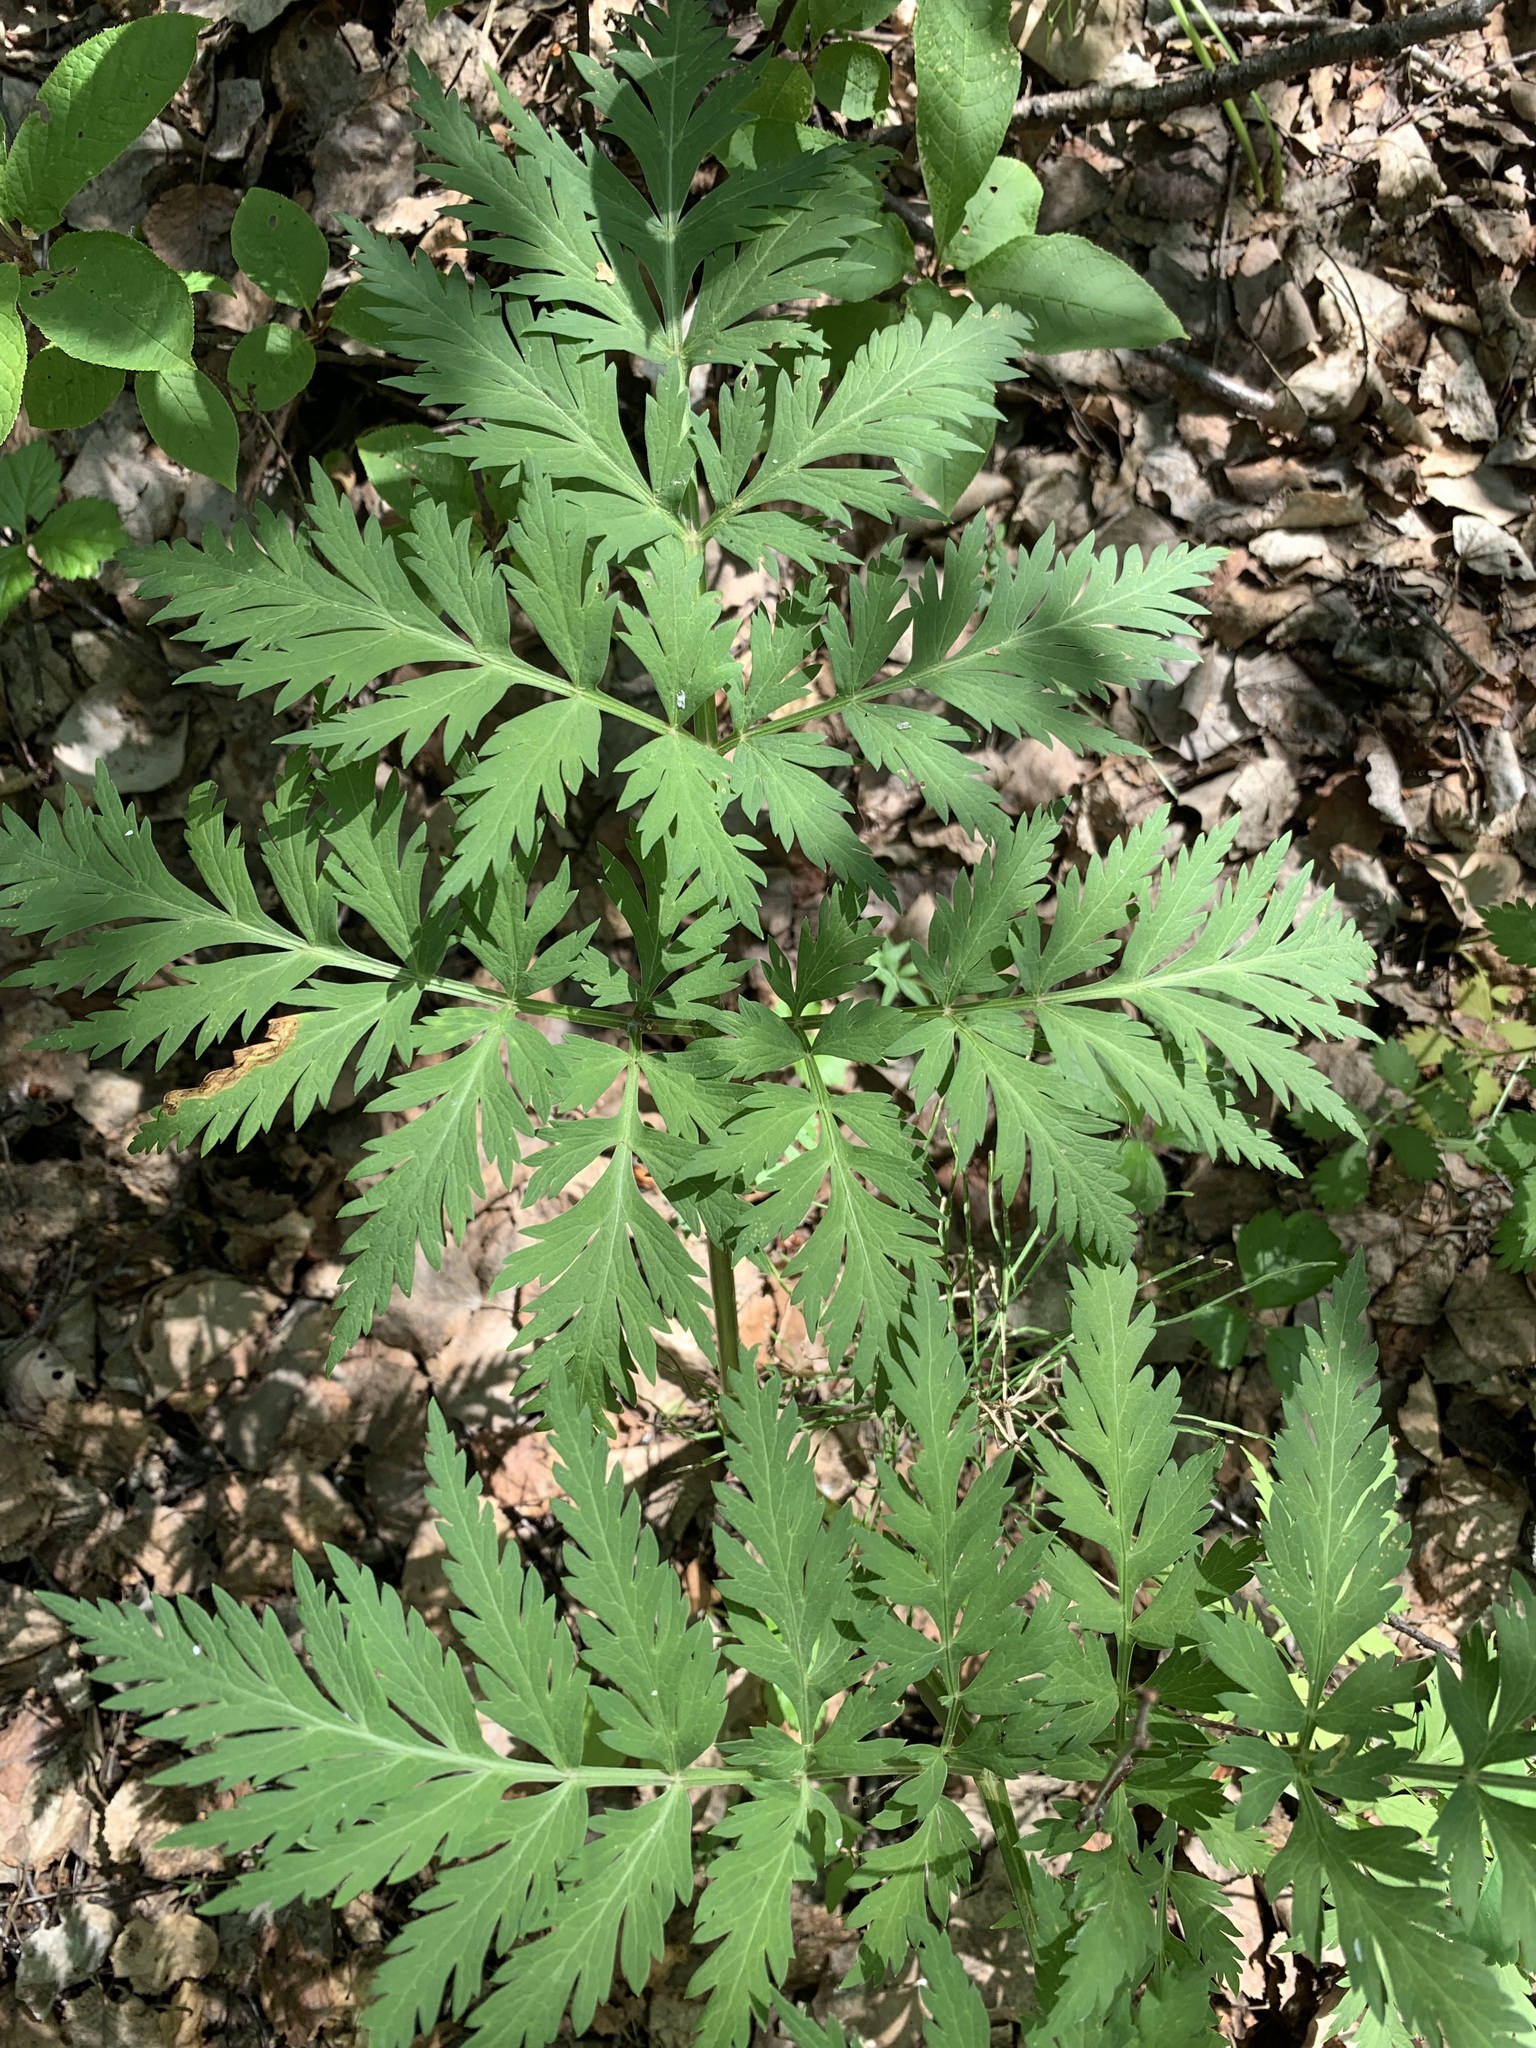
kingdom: Plantae
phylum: Tracheophyta
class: Magnoliopsida
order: Apiales
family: Apiaceae
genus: Pleurospermum
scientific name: Pleurospermum uralense
